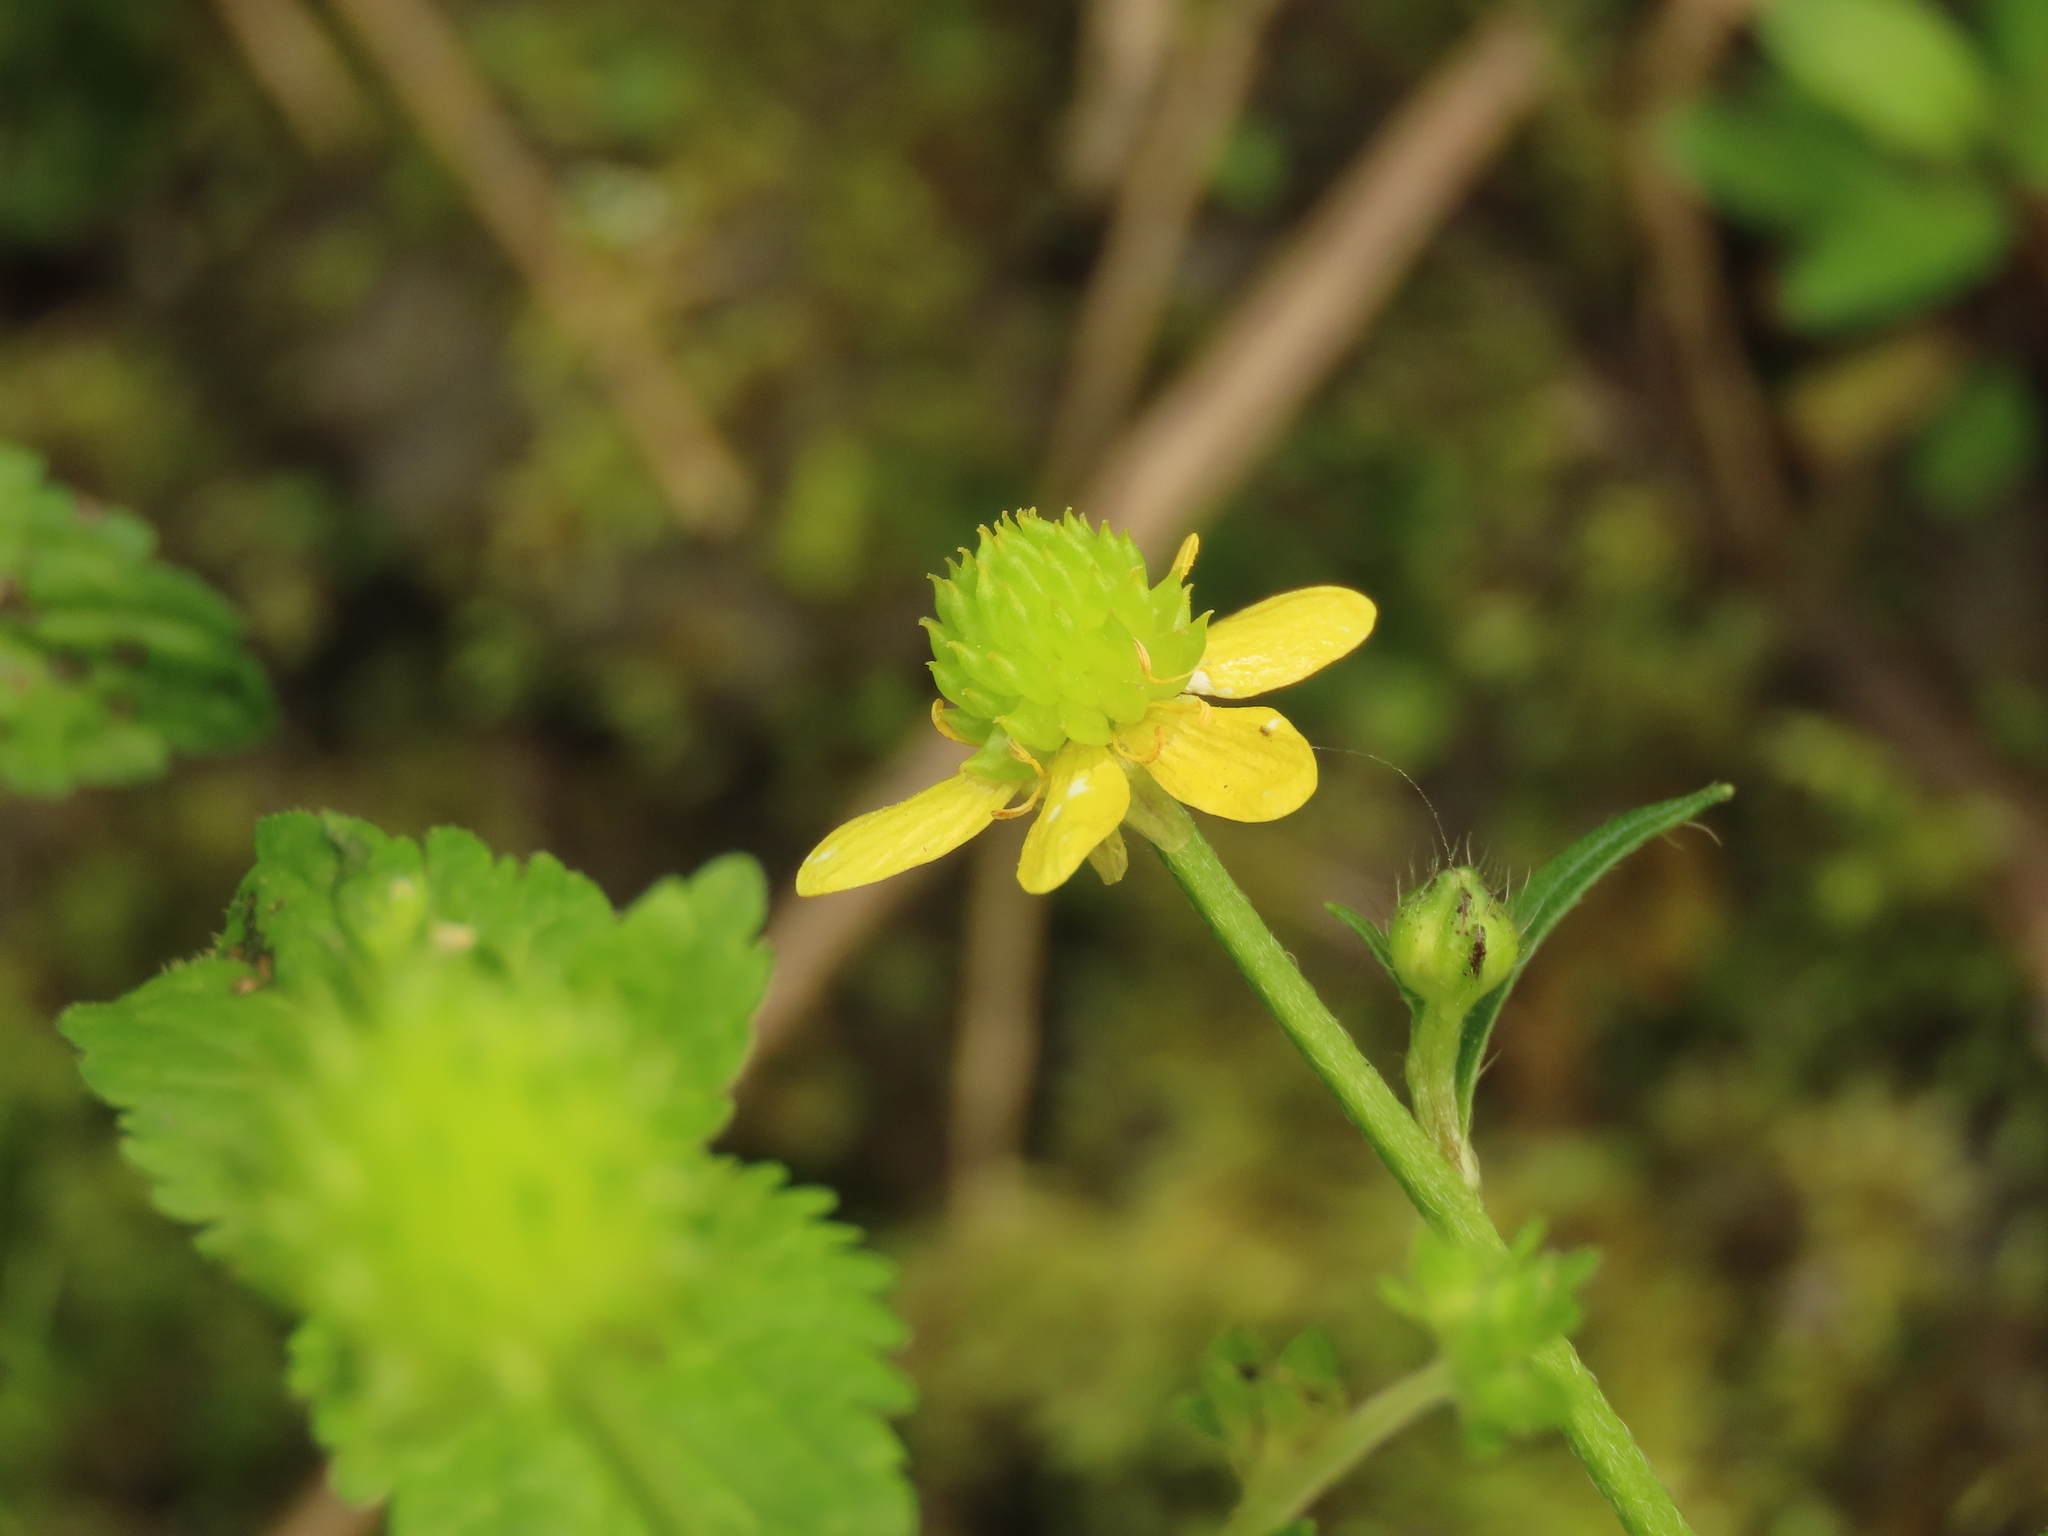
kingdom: Plantae
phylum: Tracheophyta
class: Magnoliopsida
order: Ranunculales
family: Ranunculaceae
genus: Ranunculus
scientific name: Ranunculus cantoniensis
